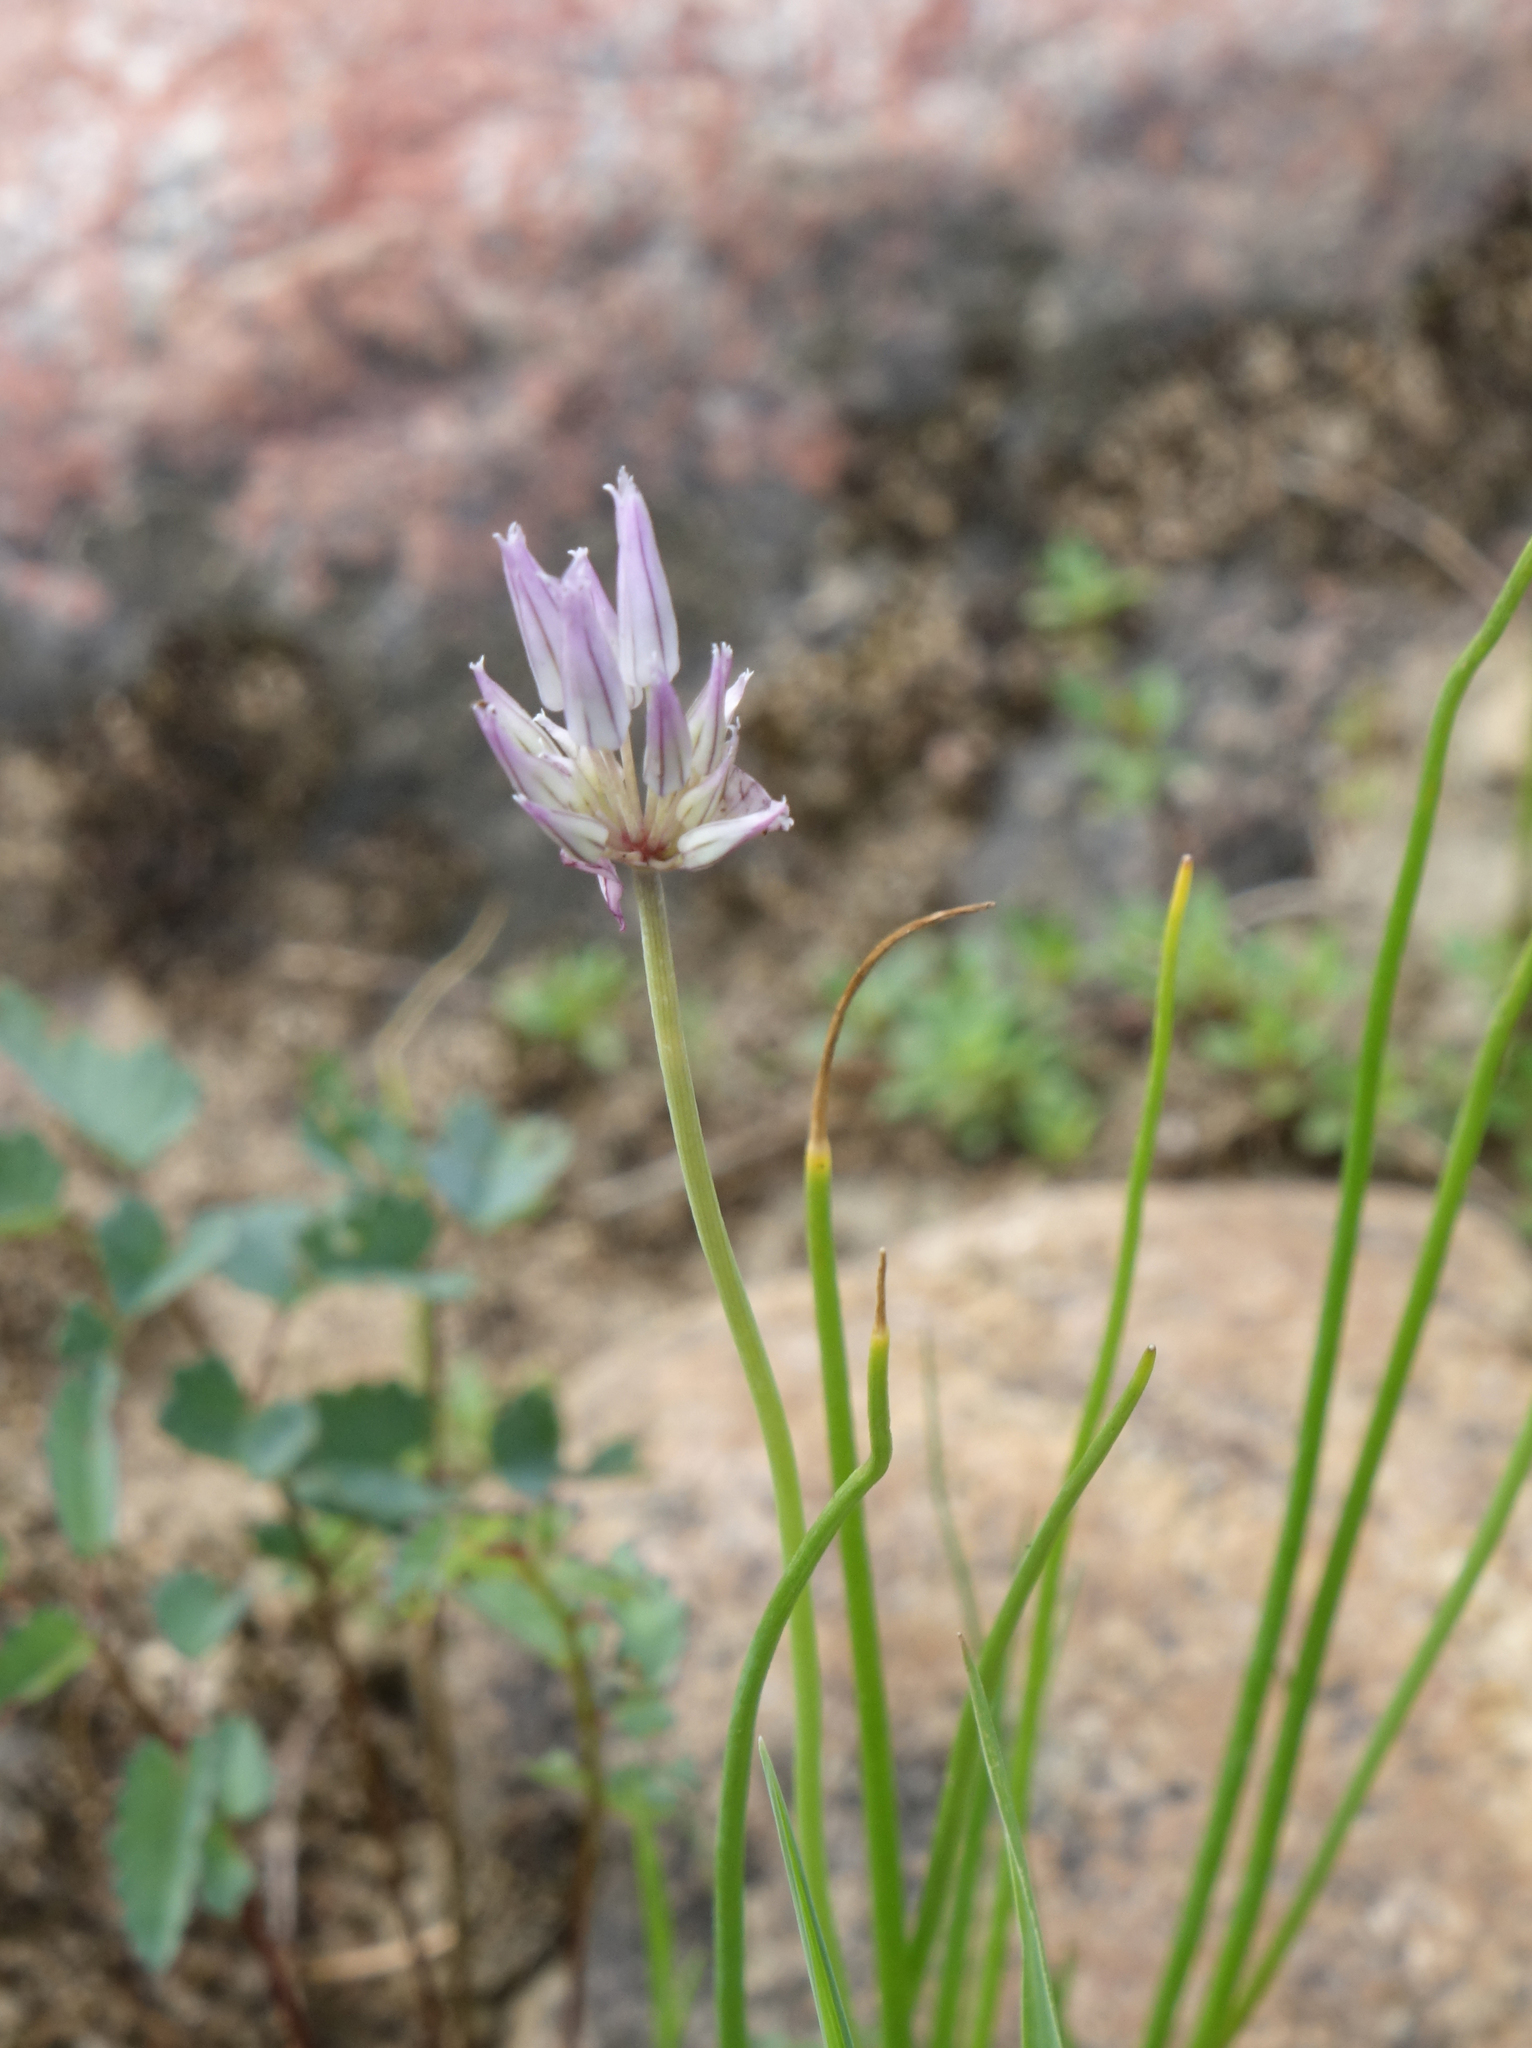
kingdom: Plantae
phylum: Tracheophyta
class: Liliopsida
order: Asparagales
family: Amaryllidaceae
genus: Allium
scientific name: Allium schoenoprasum
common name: Chives
